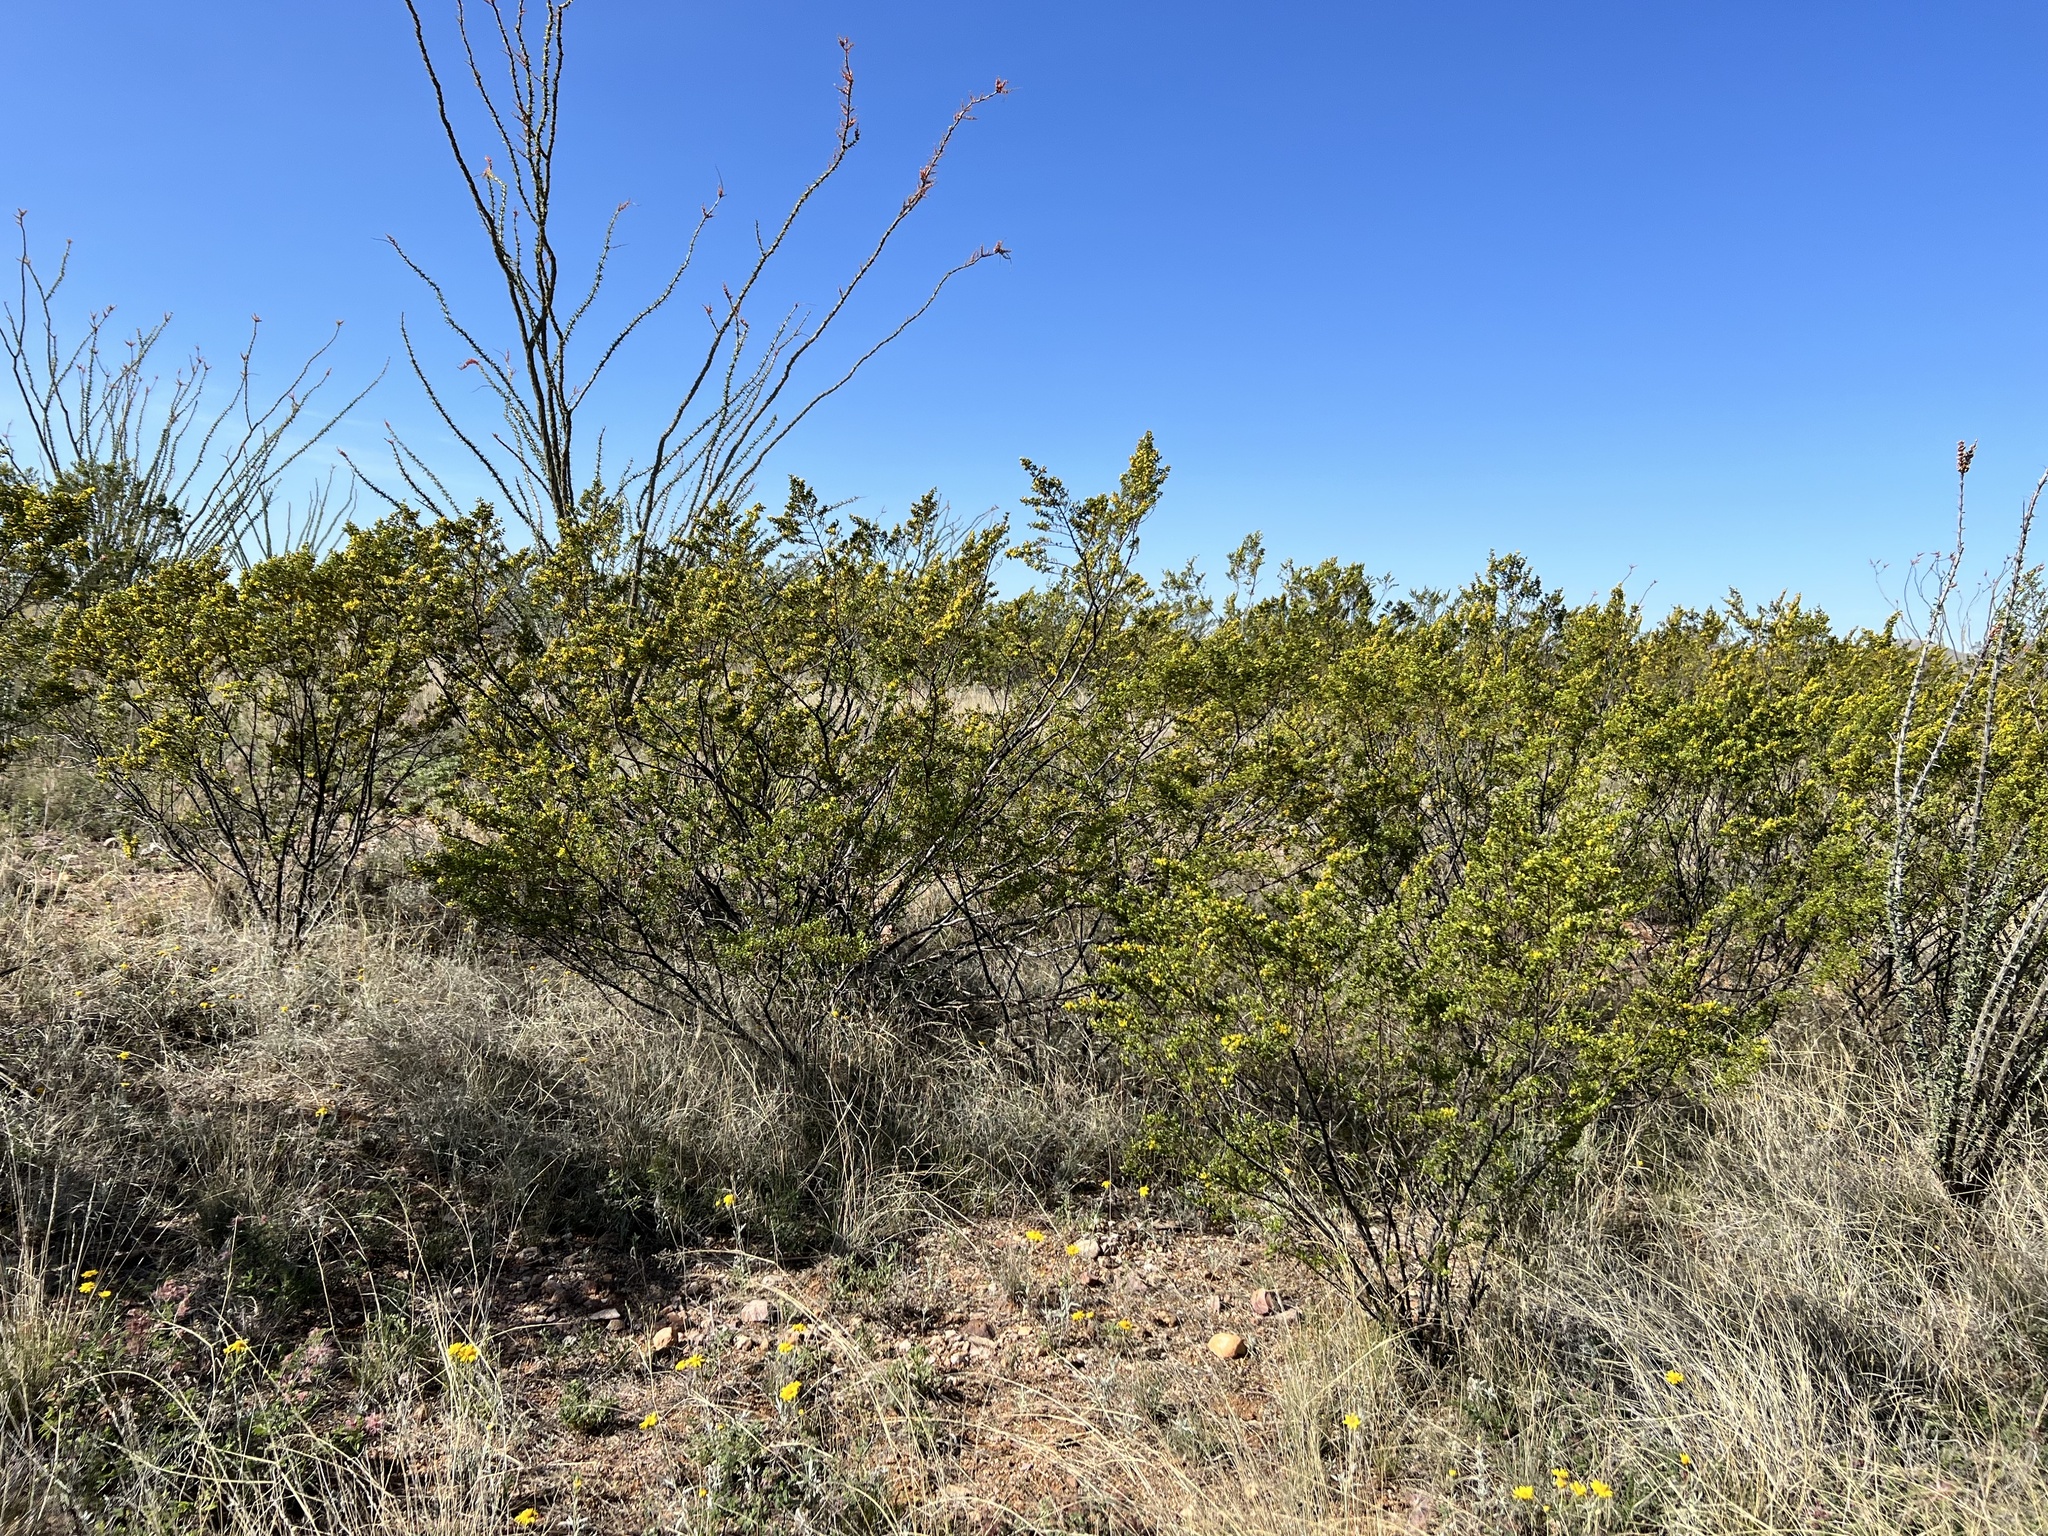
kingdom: Plantae
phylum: Tracheophyta
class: Magnoliopsida
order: Zygophyllales
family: Zygophyllaceae
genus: Larrea
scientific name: Larrea tridentata
